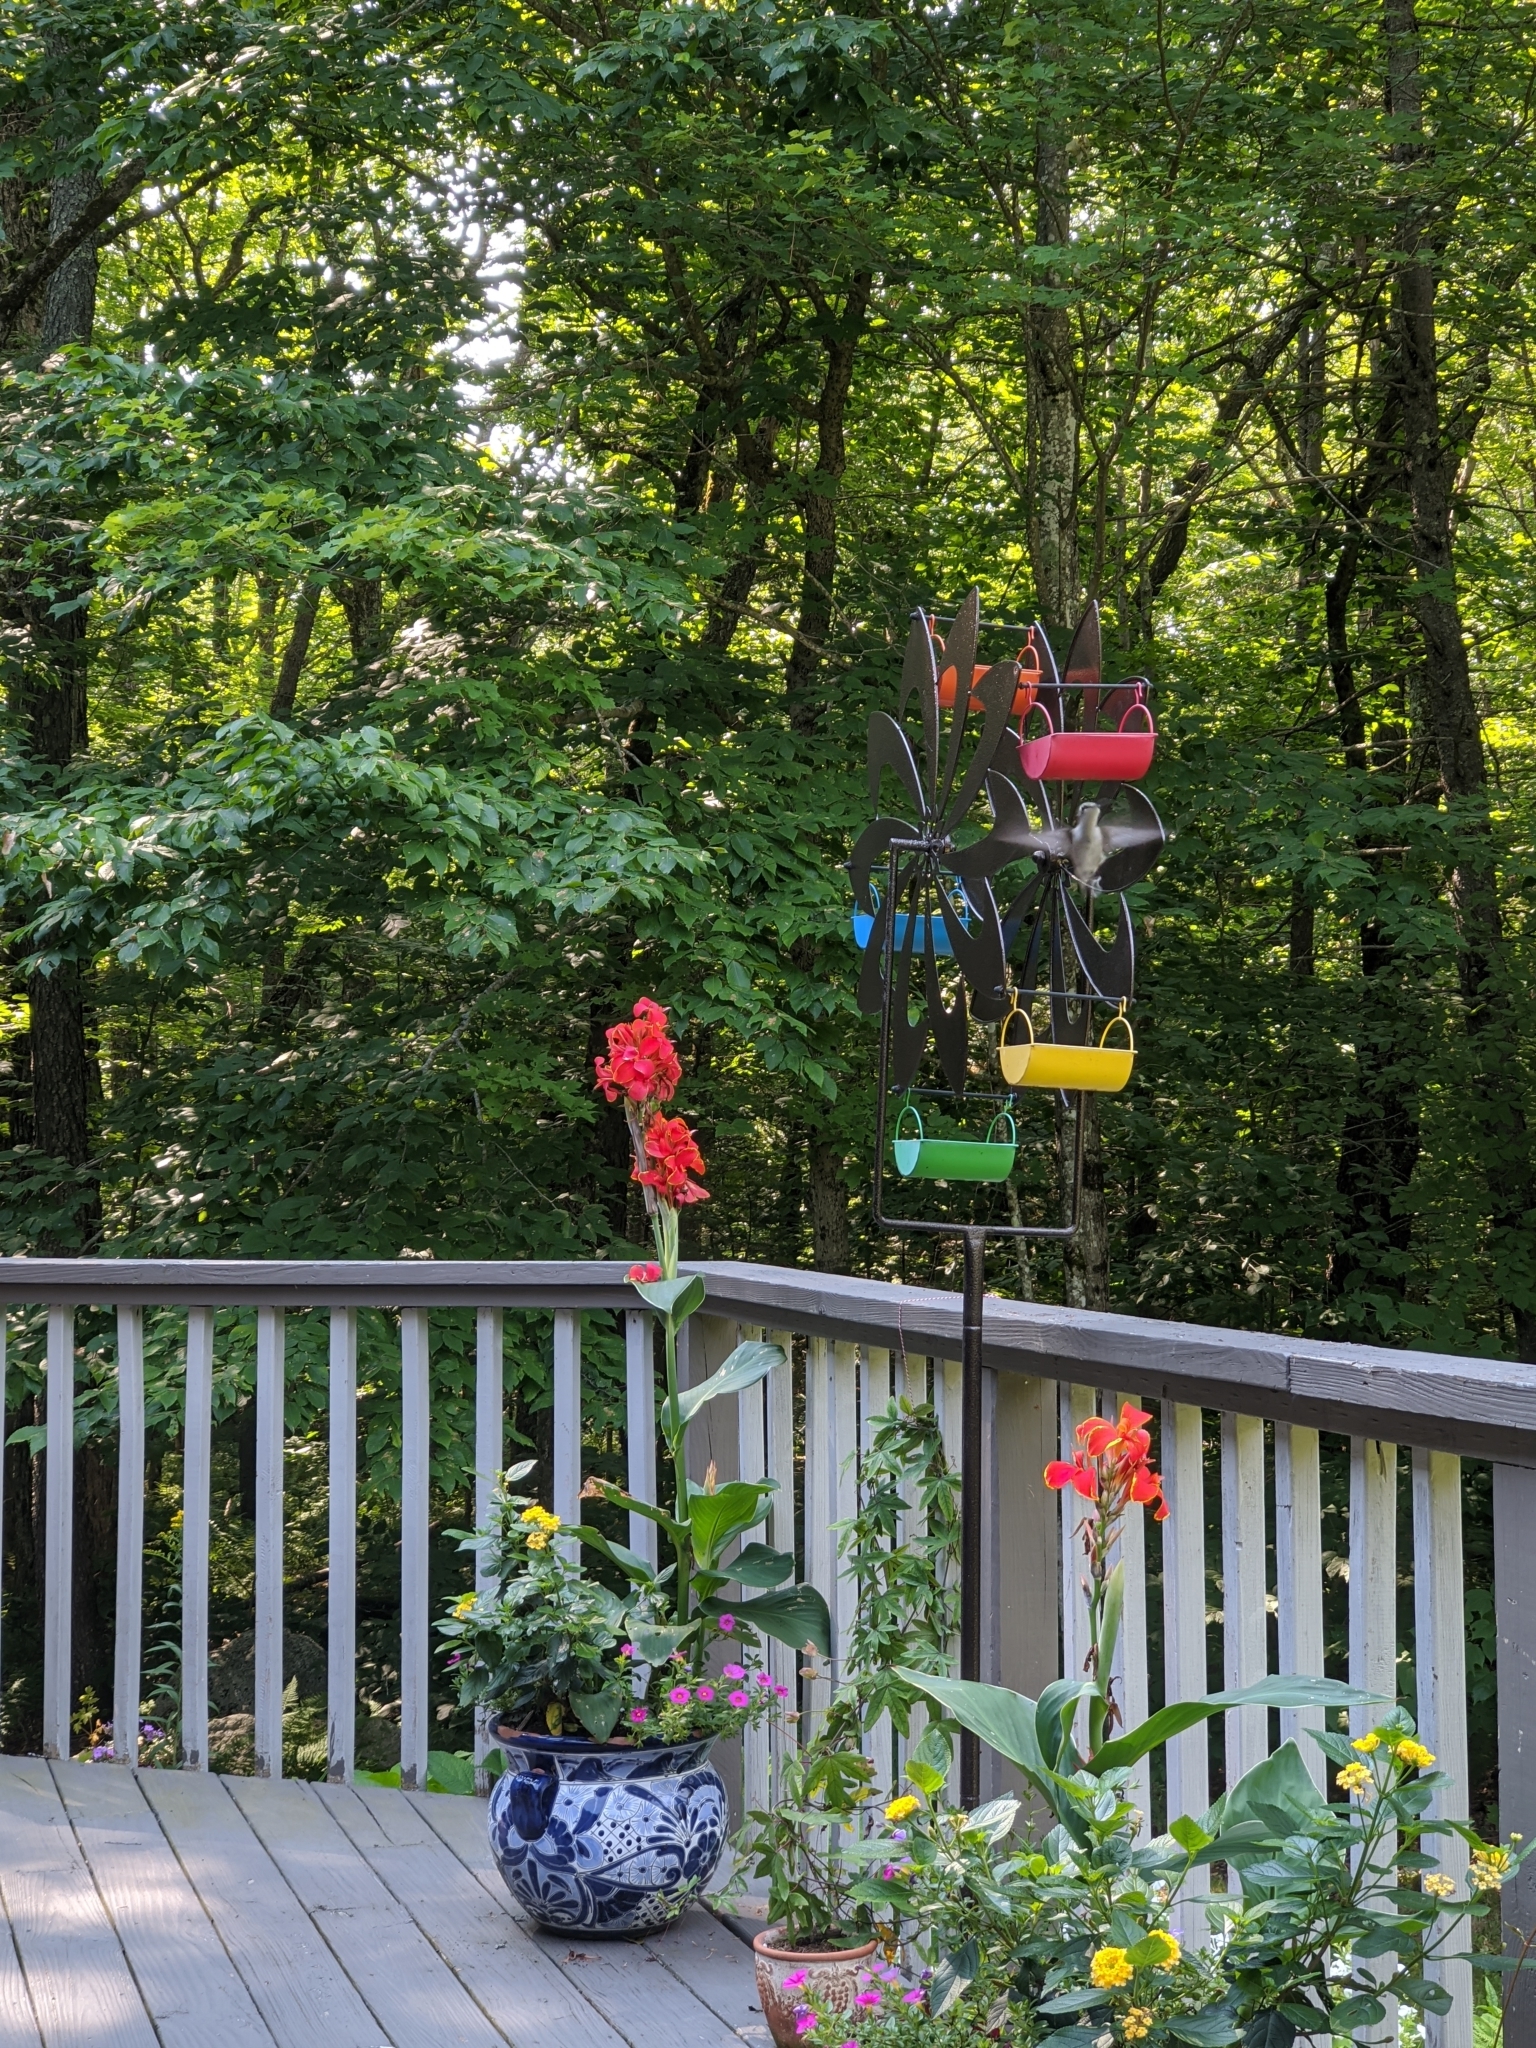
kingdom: Animalia
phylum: Chordata
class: Aves
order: Apodiformes
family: Trochilidae
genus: Archilochus
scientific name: Archilochus colubris
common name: Ruby-throated hummingbird
